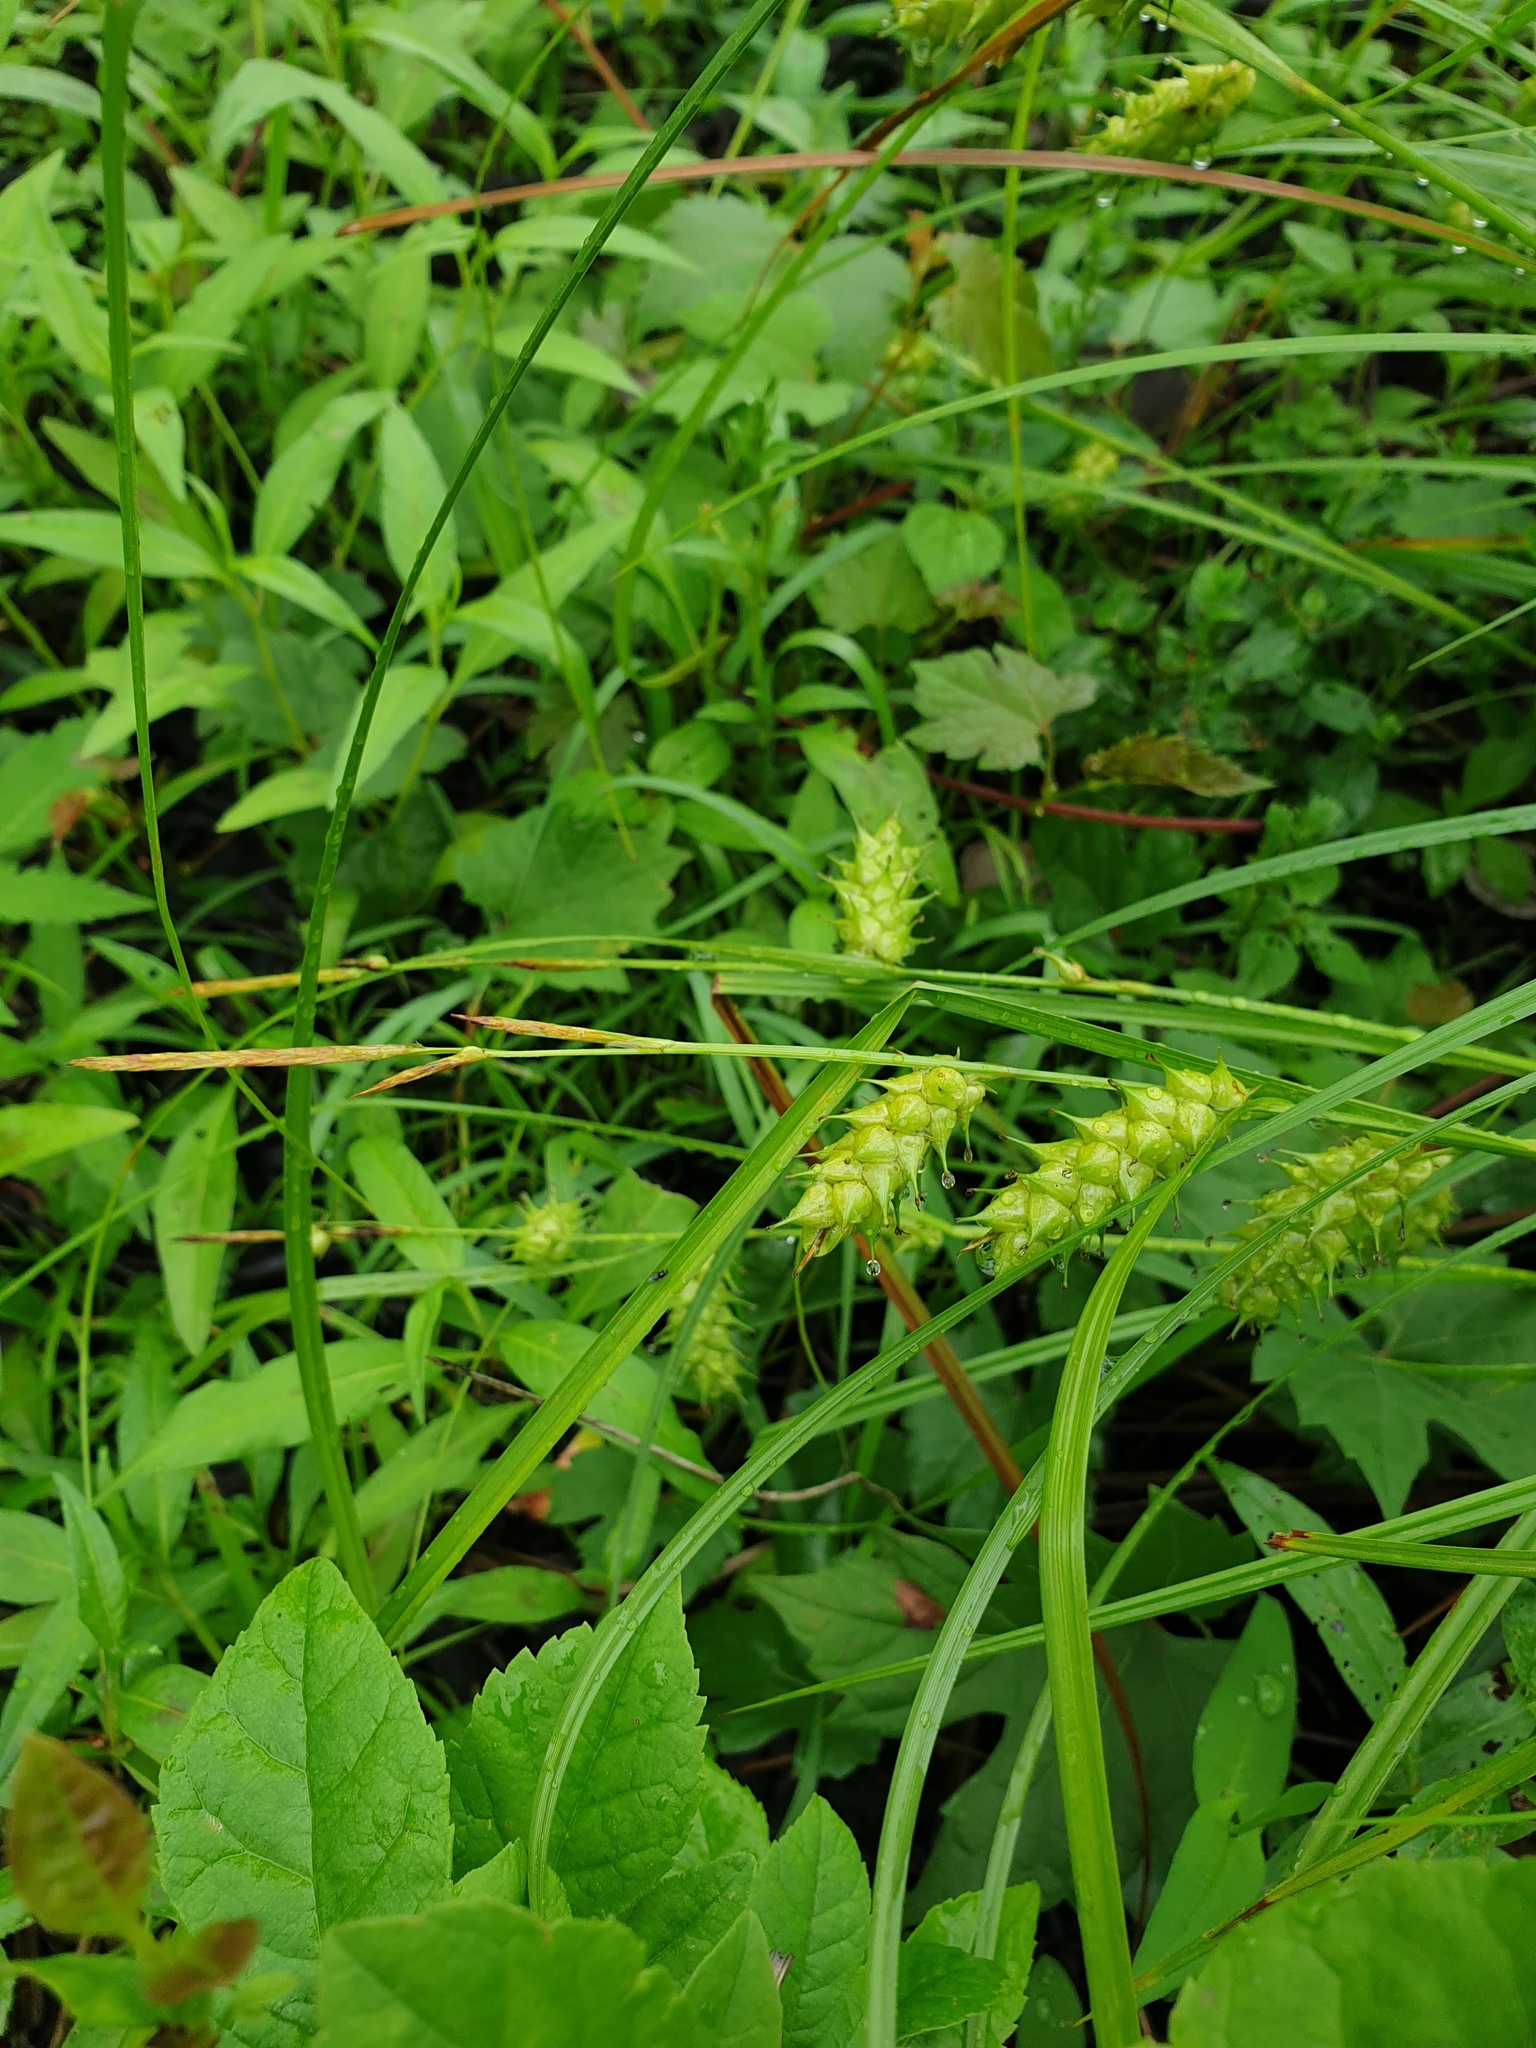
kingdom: Plantae
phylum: Tracheophyta
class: Liliopsida
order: Poales
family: Cyperaceae
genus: Carex
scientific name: Carex tuckermanii
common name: Tuckerman's sedge
